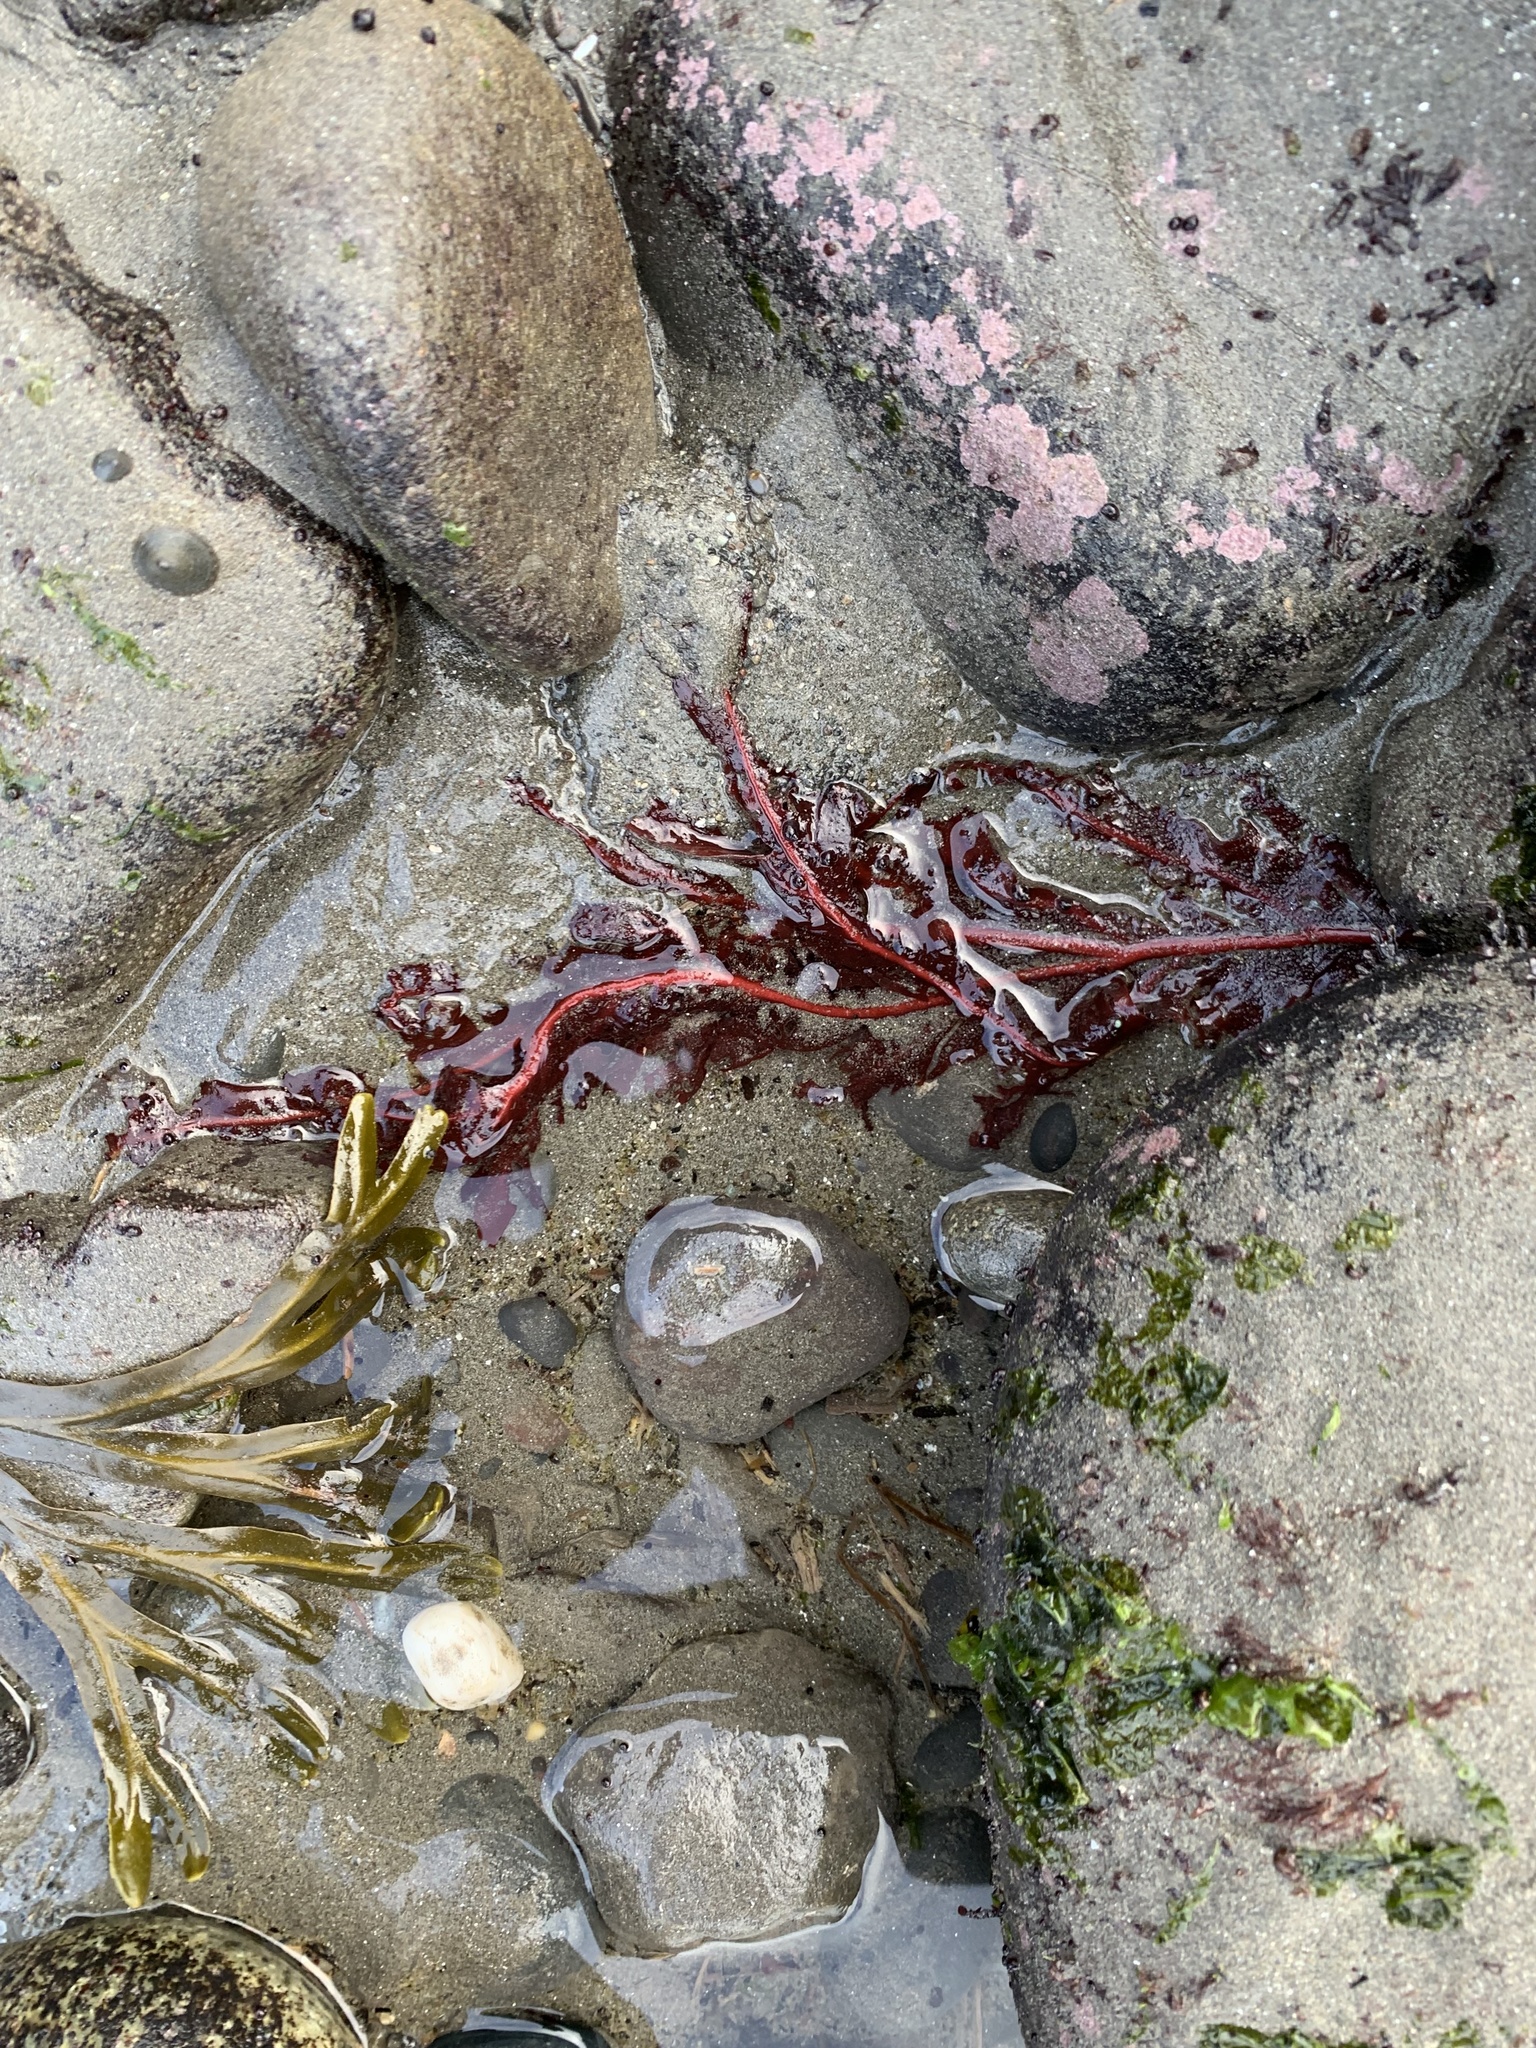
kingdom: Plantae
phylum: Rhodophyta
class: Florideophyceae
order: Gigartinales
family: Kallymeniaceae
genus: Erythrophyllum
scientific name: Erythrophyllum delesserioides
